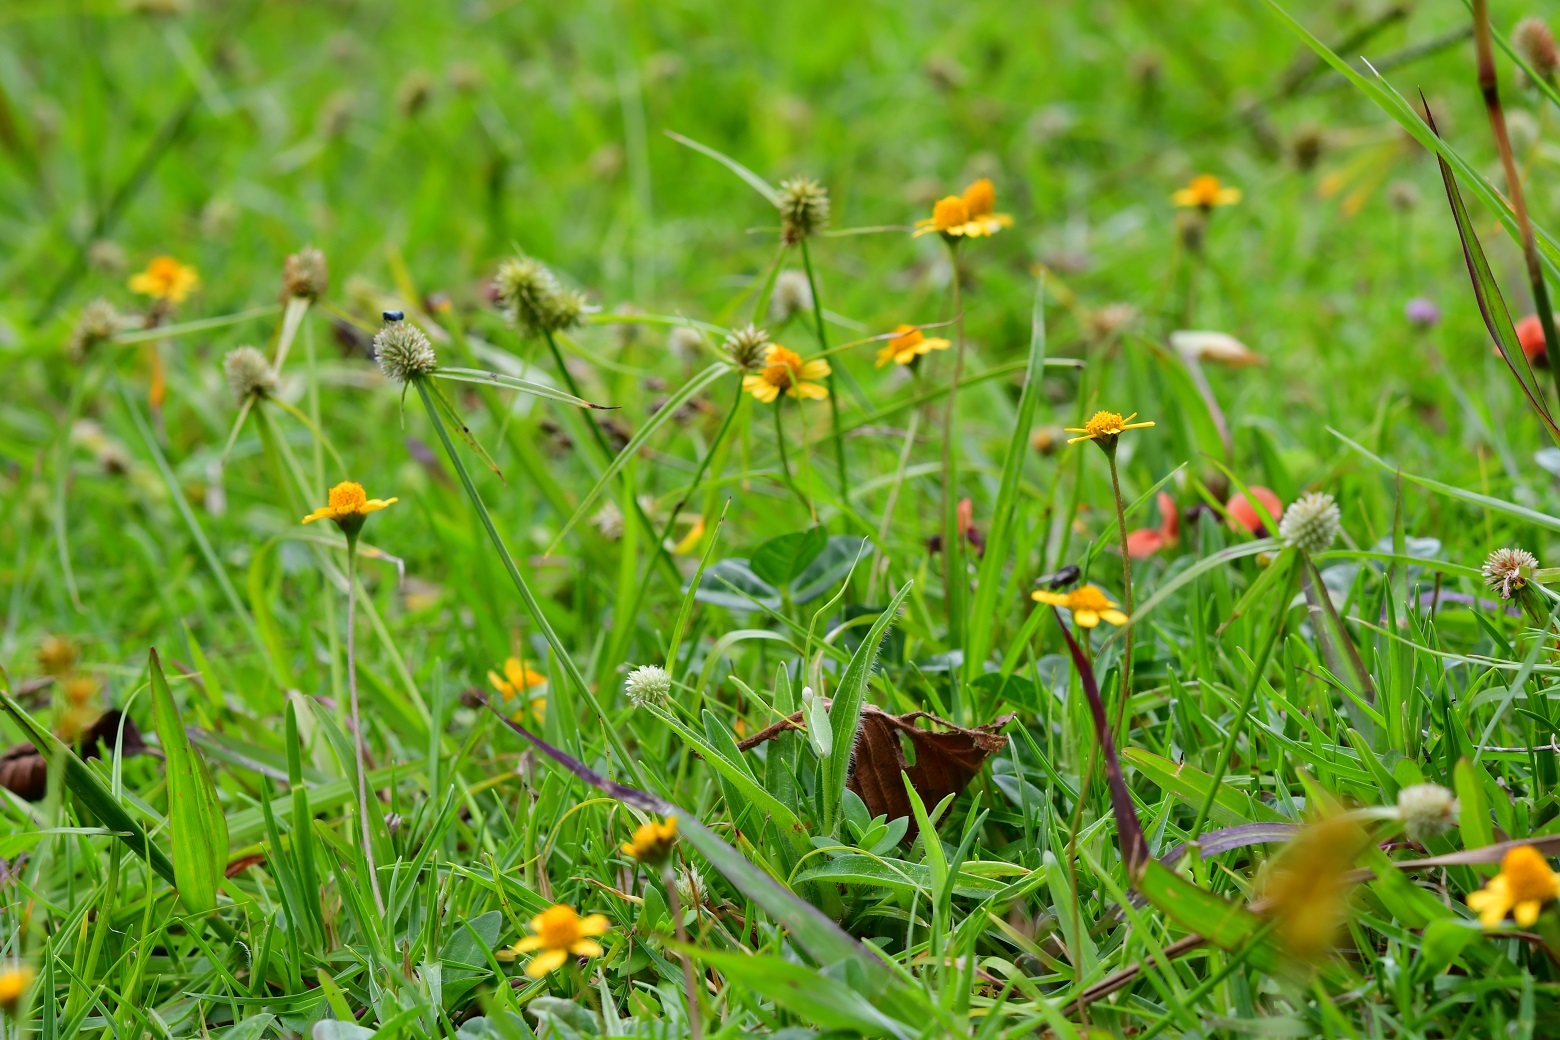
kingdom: Plantae
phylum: Tracheophyta
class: Magnoliopsida
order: Asterales
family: Asteraceae
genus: Acmella
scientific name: Acmella repens
